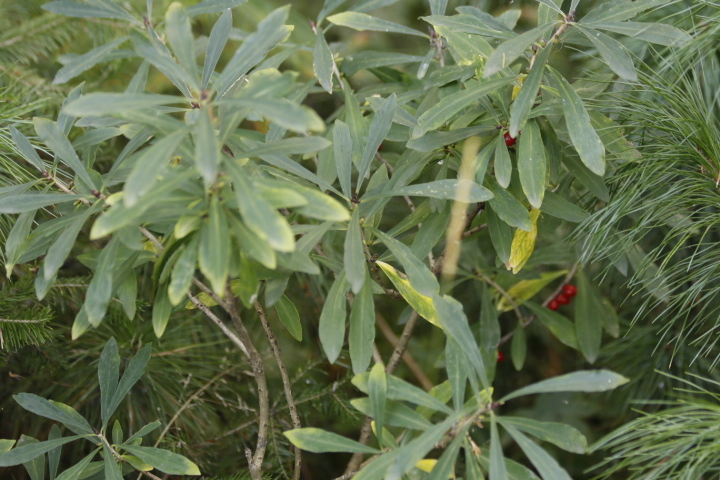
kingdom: Plantae
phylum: Tracheophyta
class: Magnoliopsida
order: Malvales
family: Thymelaeaceae
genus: Daphne
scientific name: Daphne mezereum
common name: Mezereon
